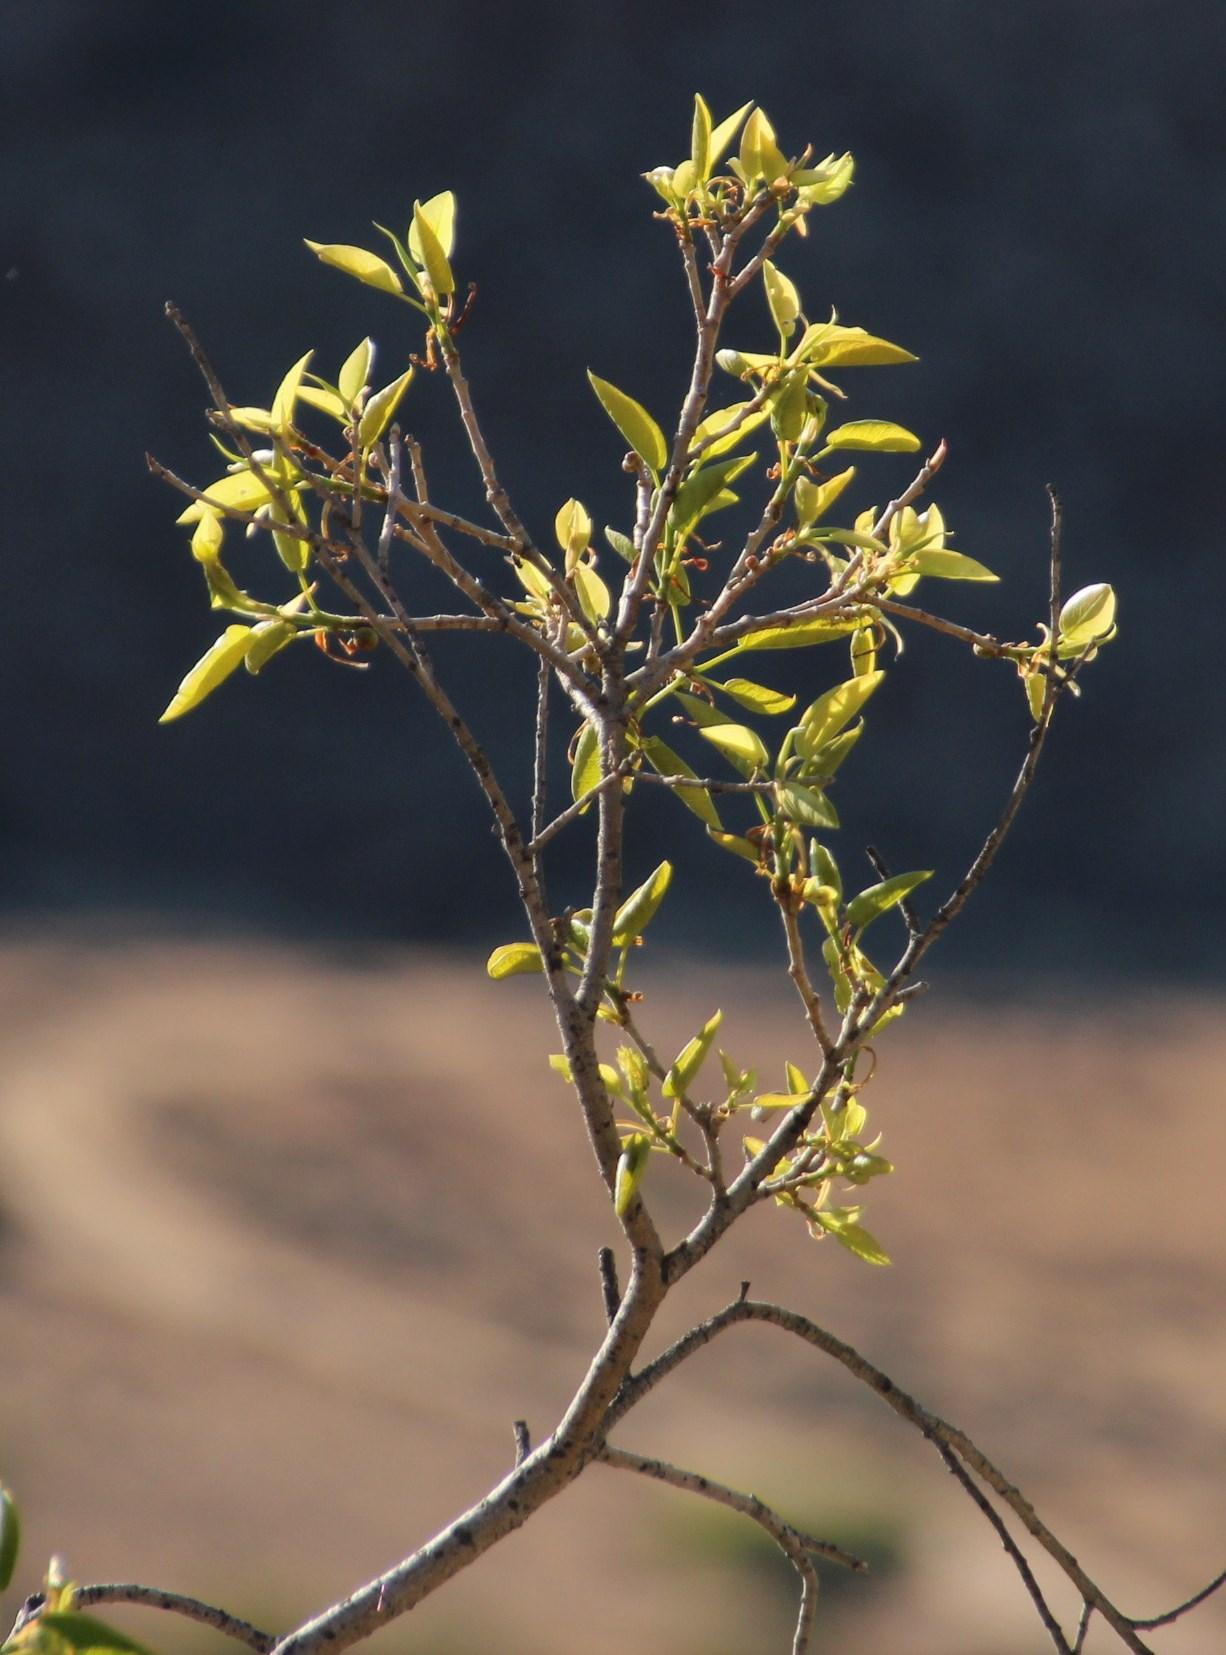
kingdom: Plantae
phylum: Tracheophyta
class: Magnoliopsida
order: Rosales
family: Moraceae
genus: Ficus
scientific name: Ficus cordata
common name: Namaqua rock fig
